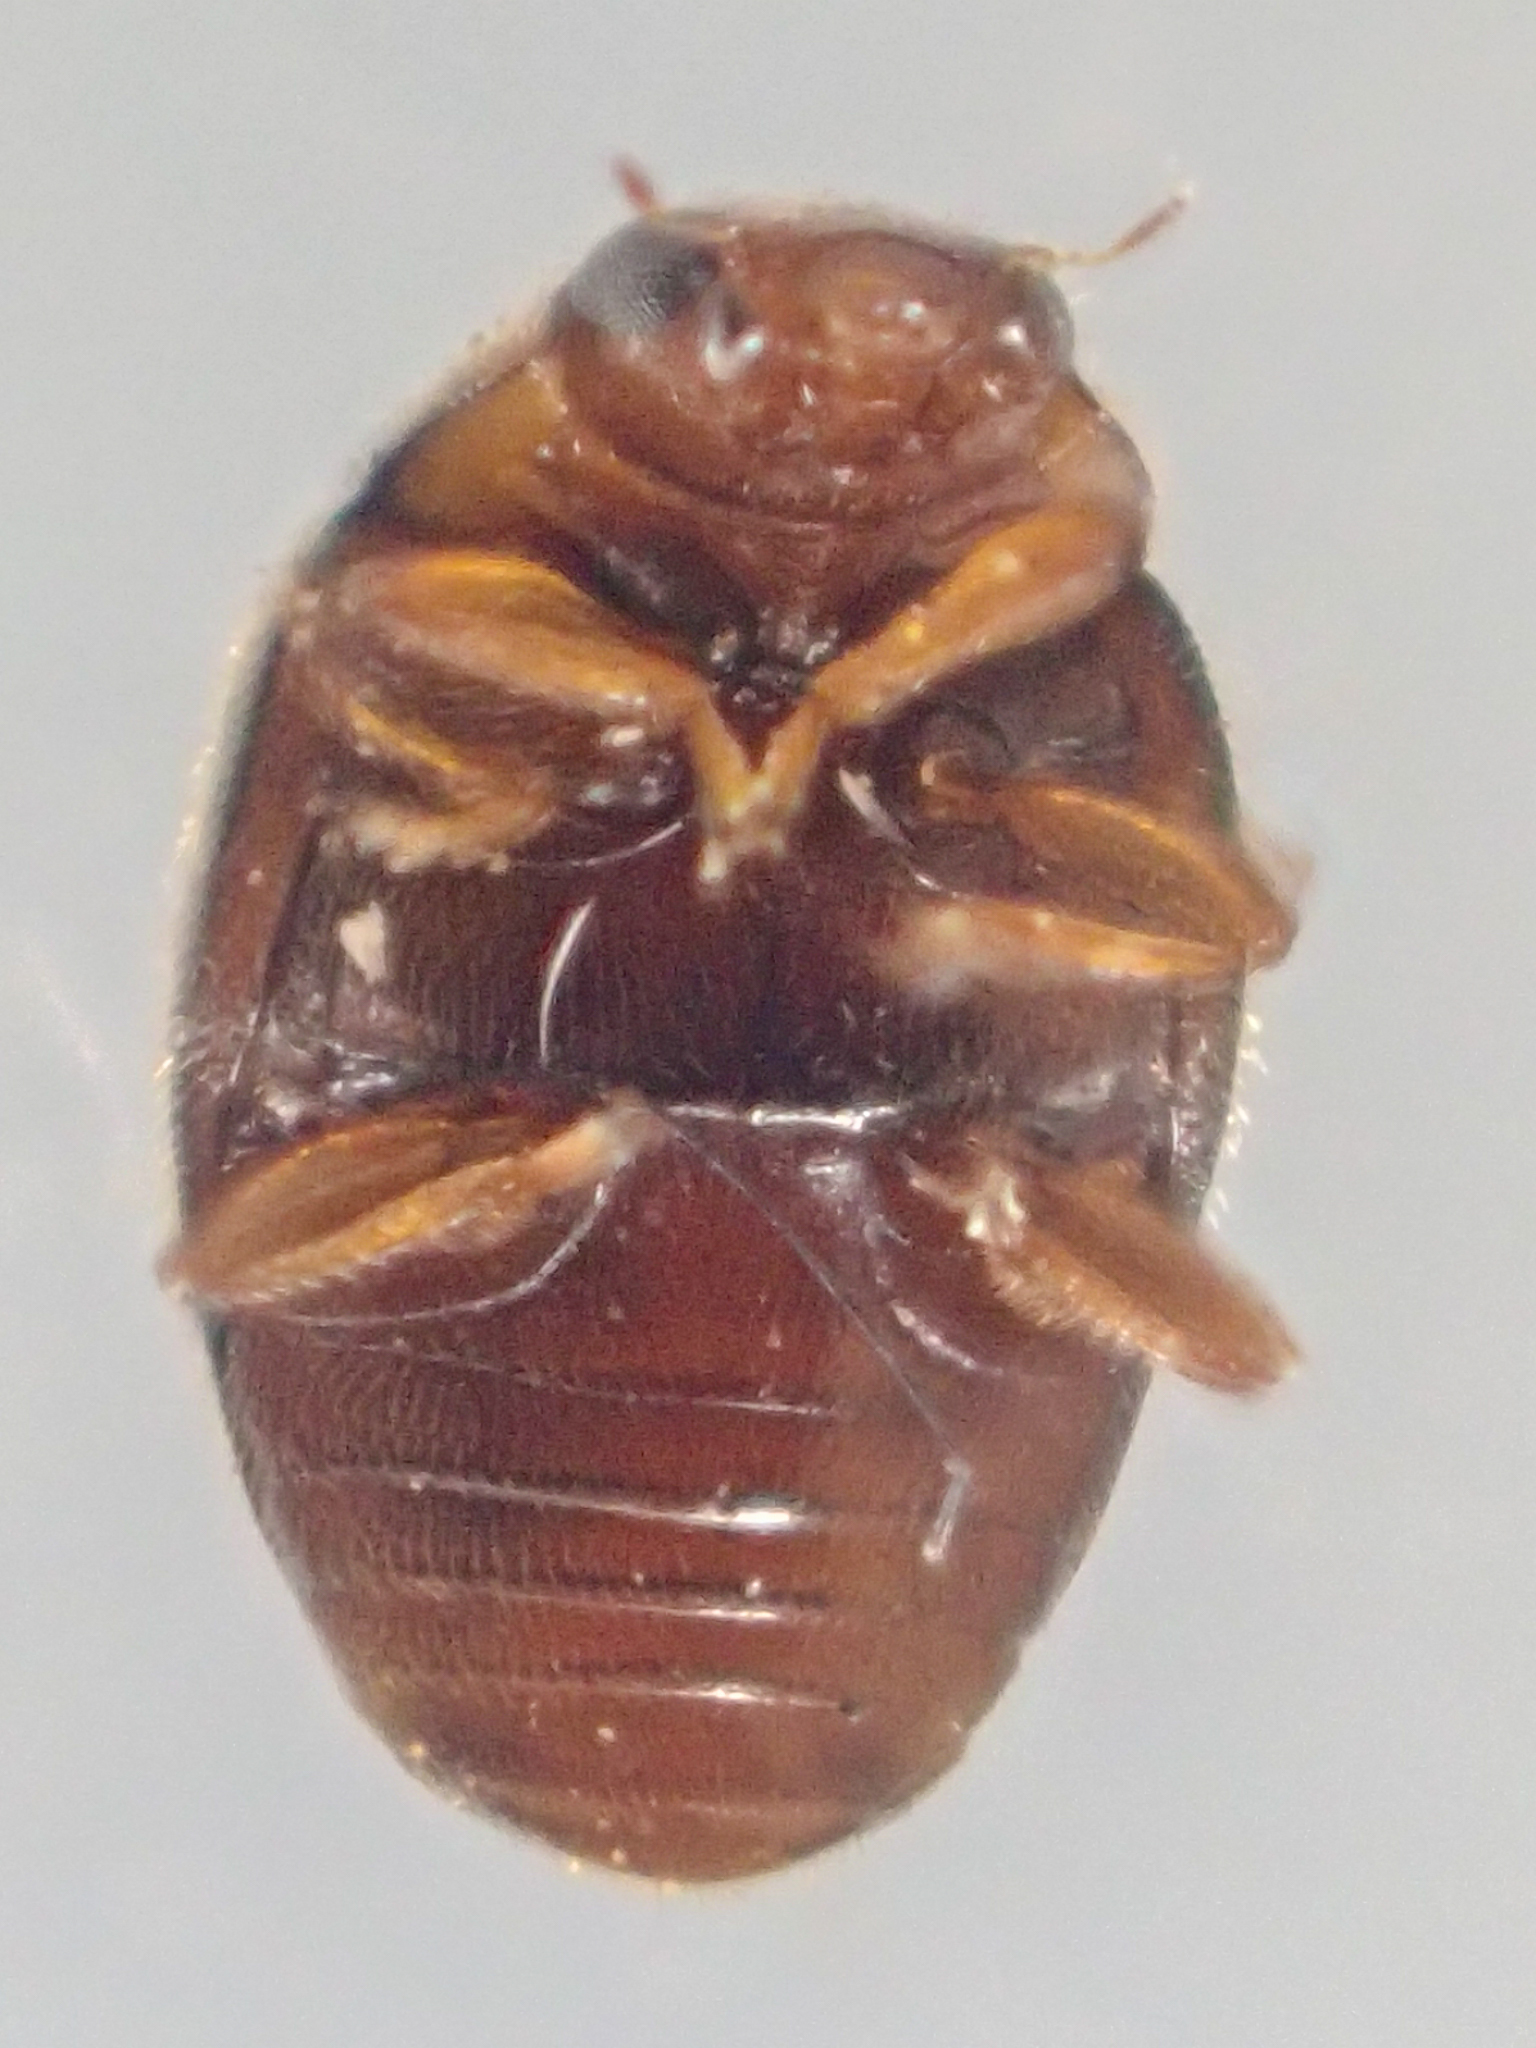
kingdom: Animalia
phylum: Arthropoda
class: Insecta
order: Coleoptera
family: Coccinellidae
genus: Nephus
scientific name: Nephus guttulatus
